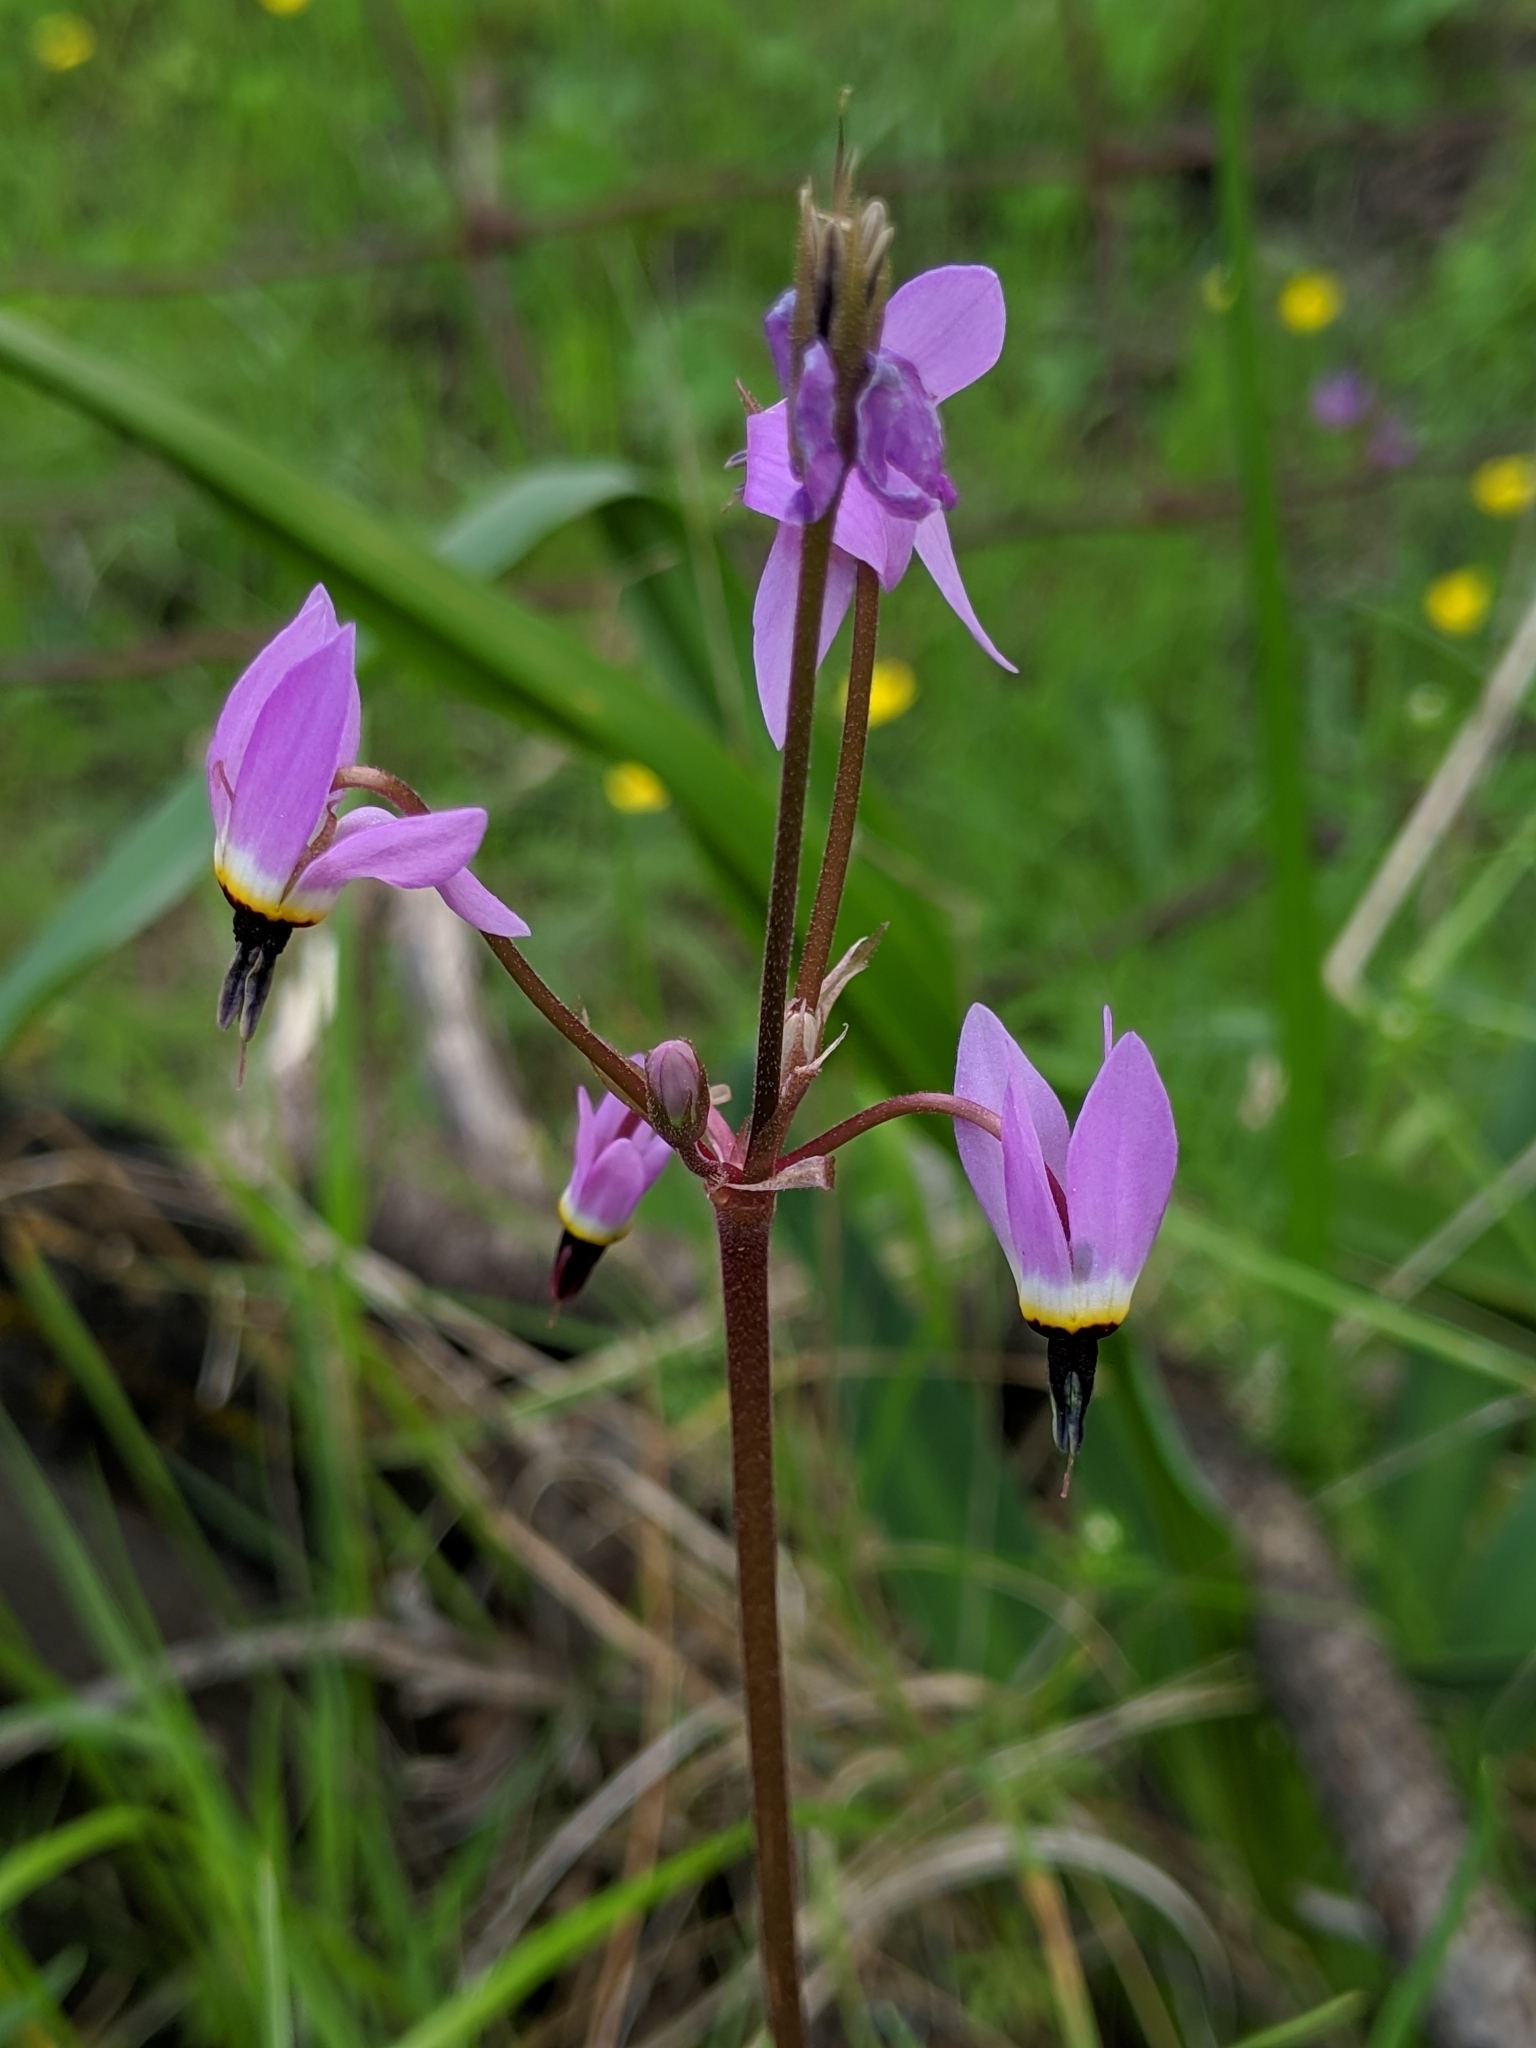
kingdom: Plantae
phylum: Tracheophyta
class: Magnoliopsida
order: Ericales
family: Primulaceae
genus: Dodecatheon
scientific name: Dodecatheon hendersonii
